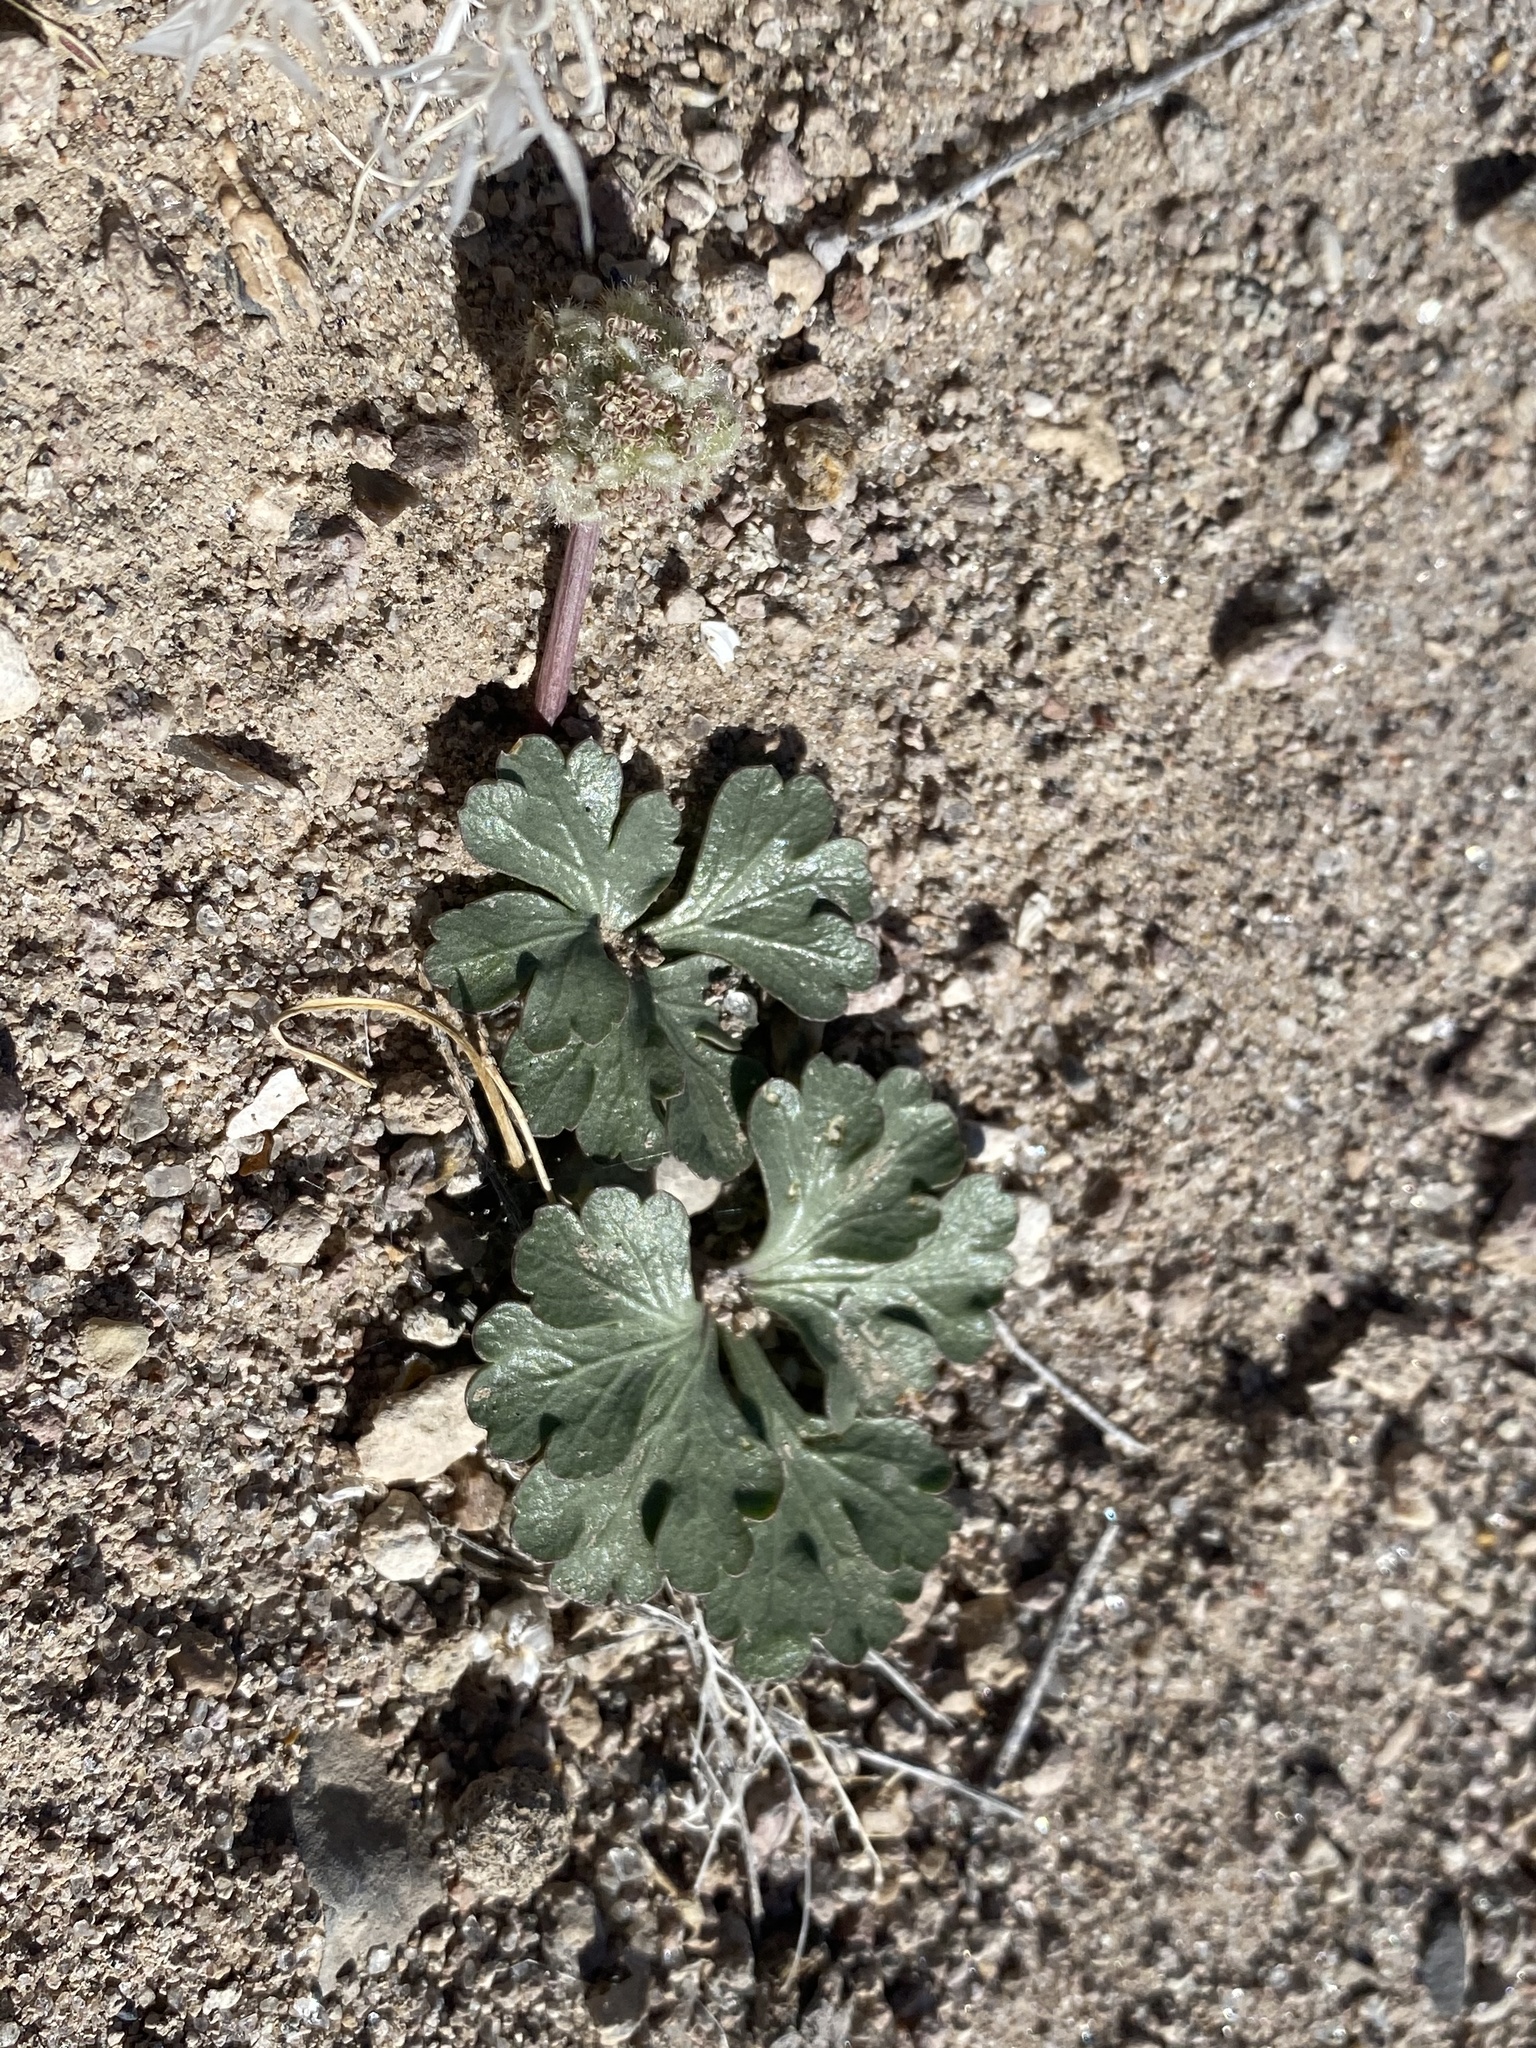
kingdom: Plantae
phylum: Tracheophyta
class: Magnoliopsida
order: Apiales
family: Apiaceae
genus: Cymopterus
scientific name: Cymopterus ripleyi
